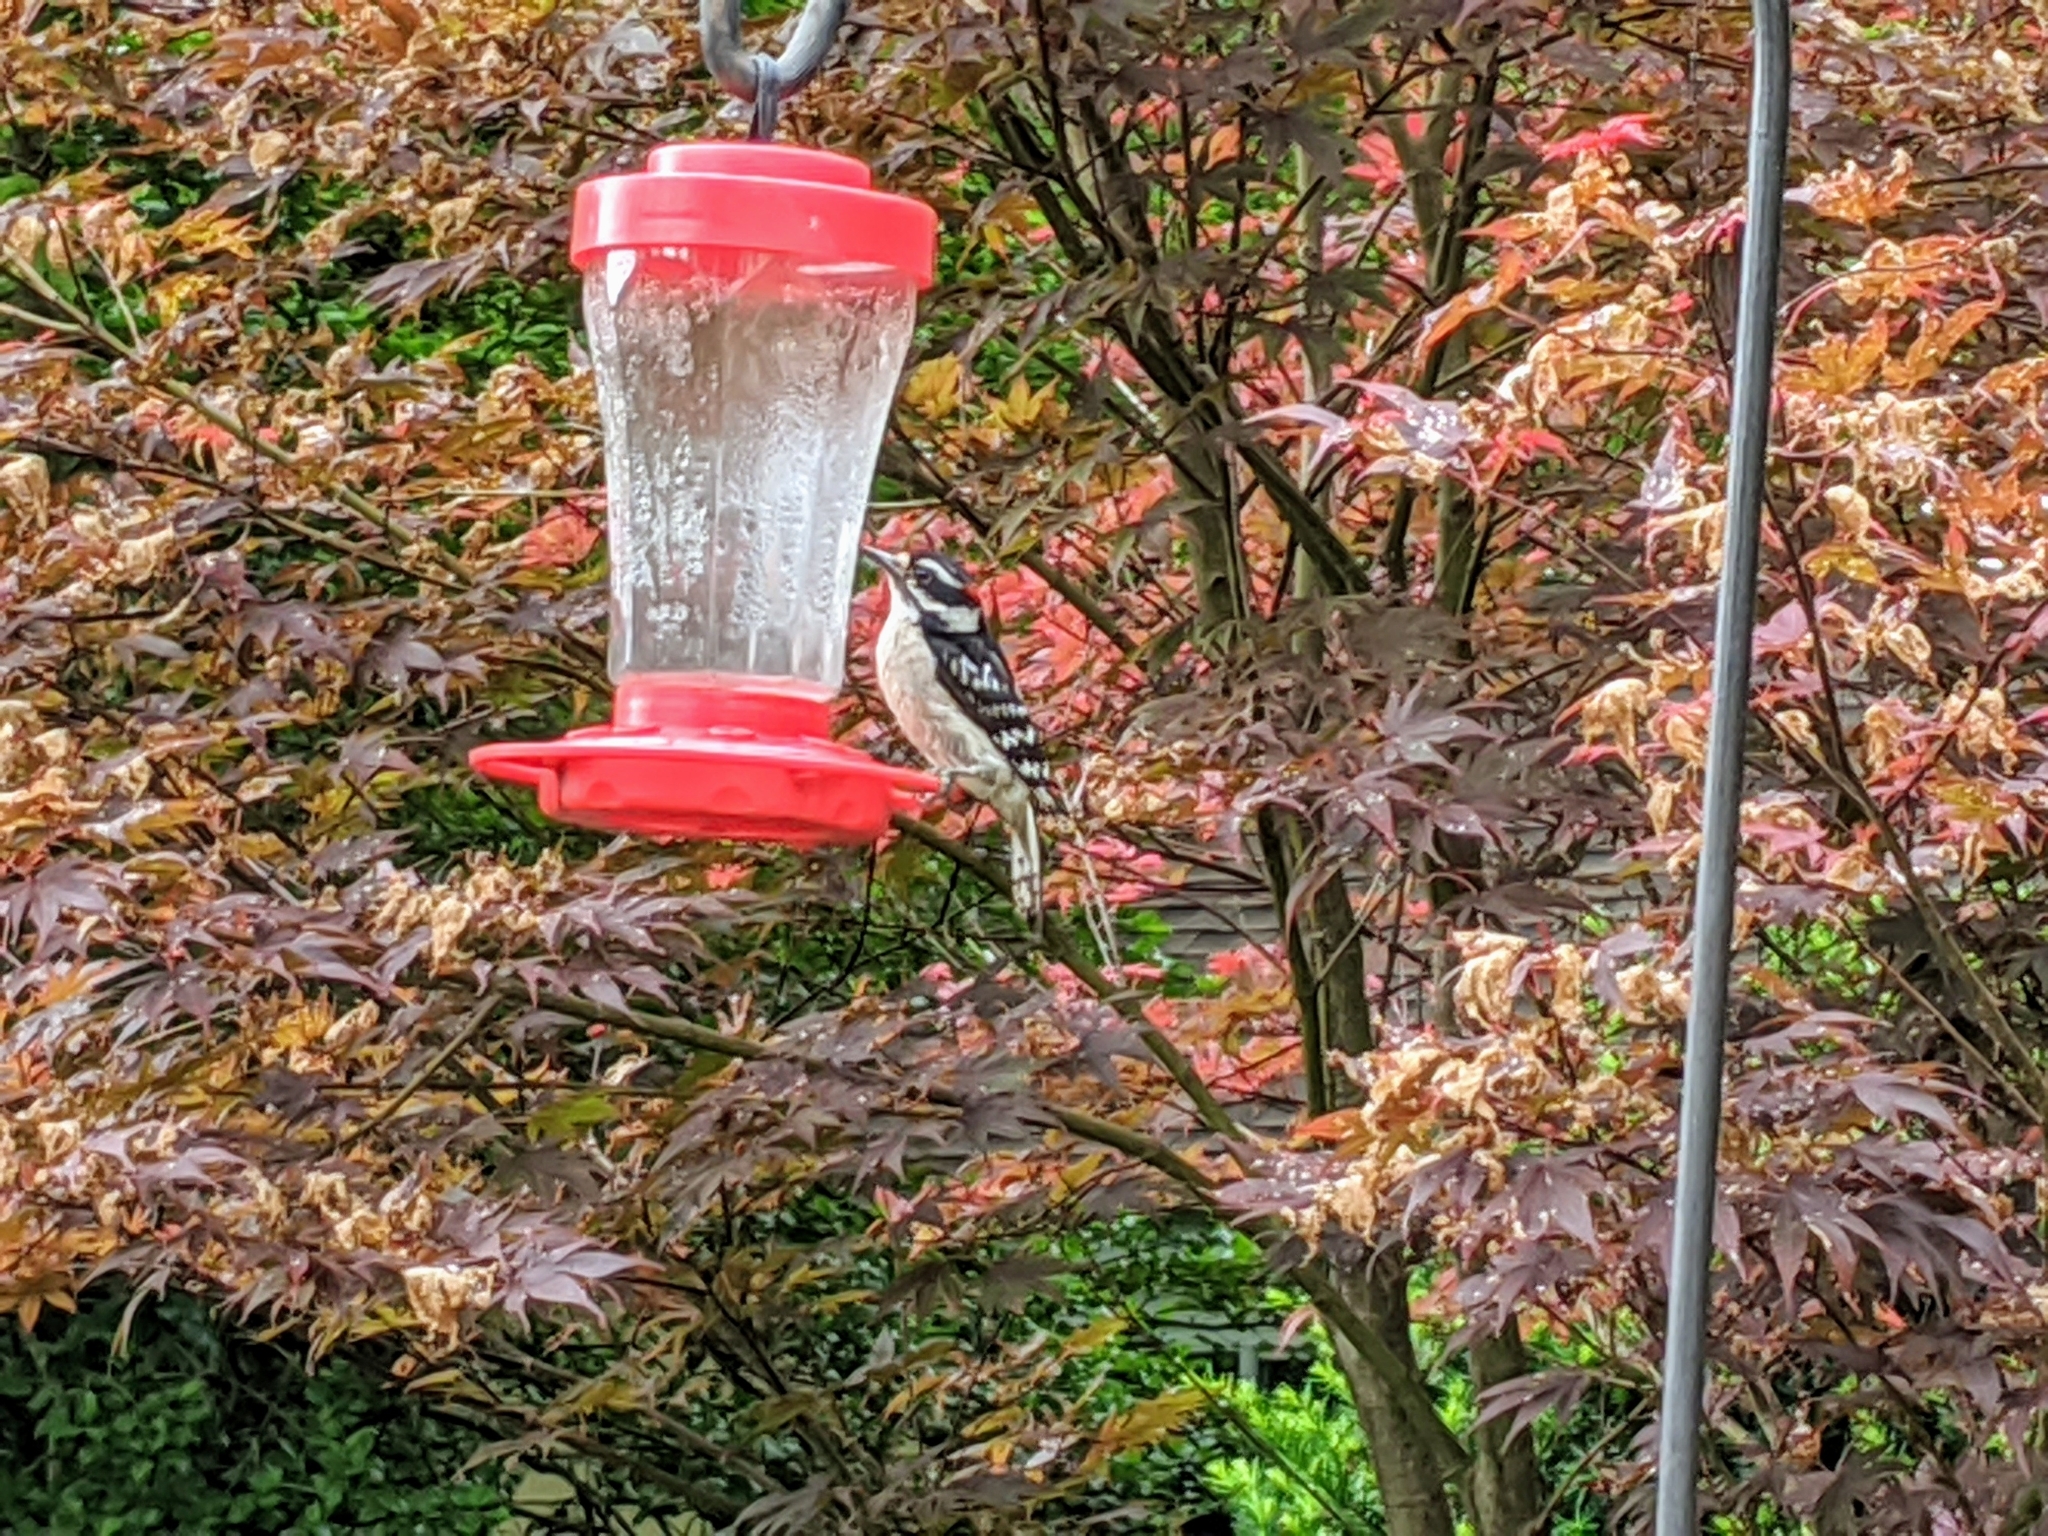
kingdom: Animalia
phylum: Chordata
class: Aves
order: Piciformes
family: Picidae
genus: Dryobates
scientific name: Dryobates pubescens
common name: Downy woodpecker
